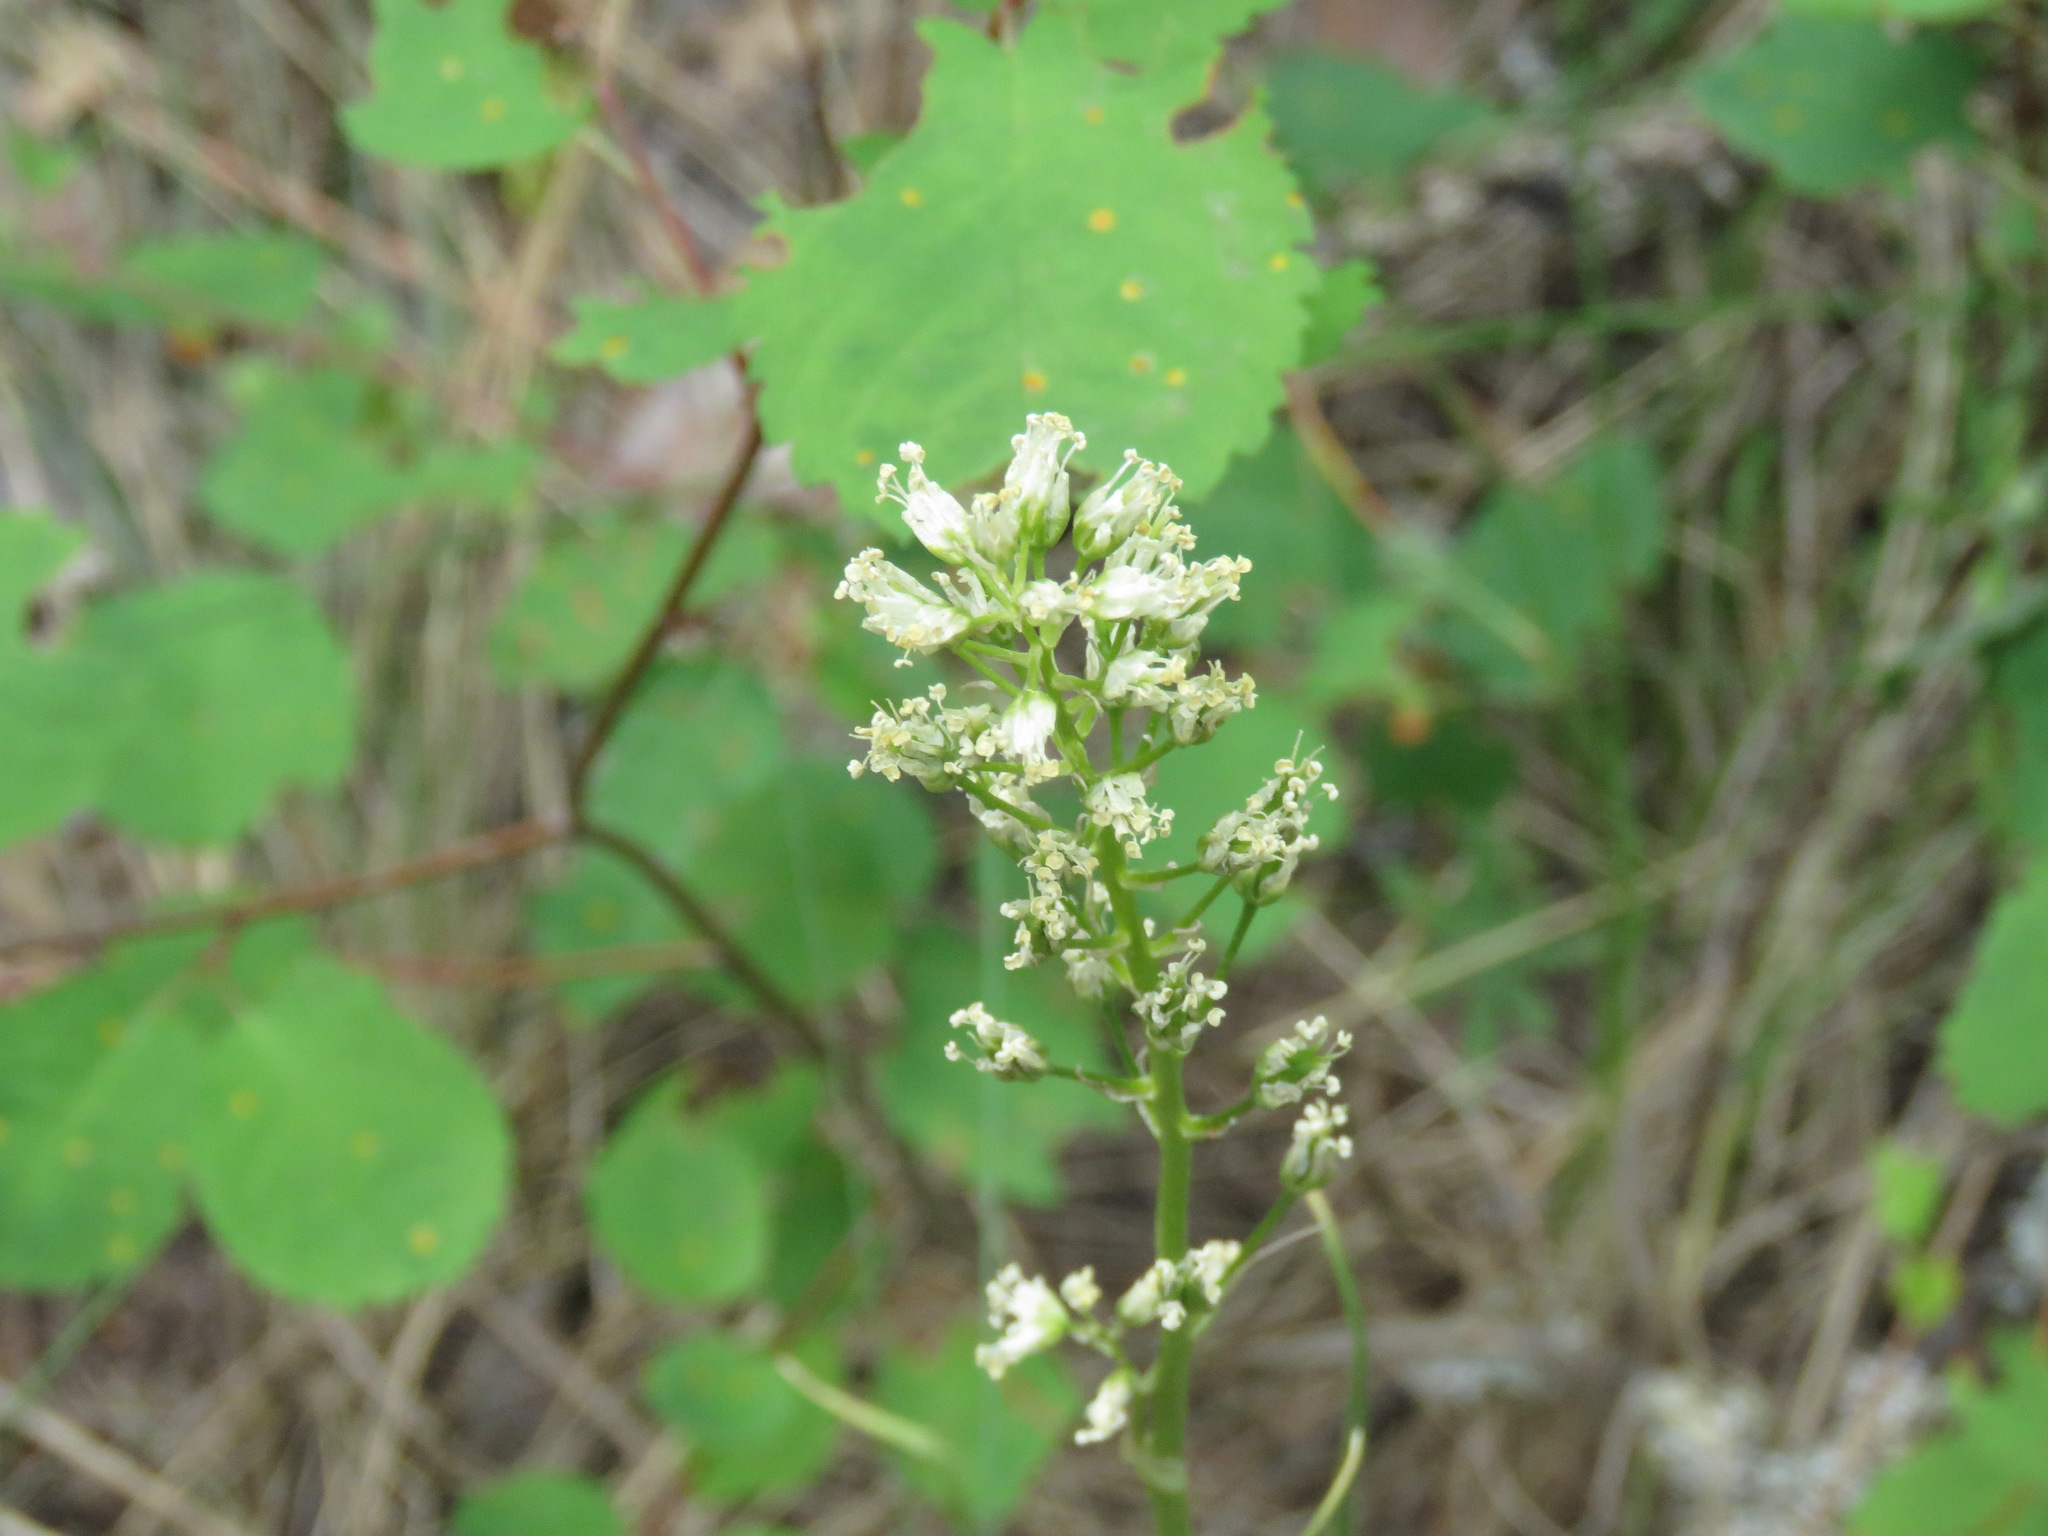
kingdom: Plantae
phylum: Tracheophyta
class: Liliopsida
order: Liliales
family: Melanthiaceae
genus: Toxicoscordion
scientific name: Toxicoscordion venenosum
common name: Meadow death camas
